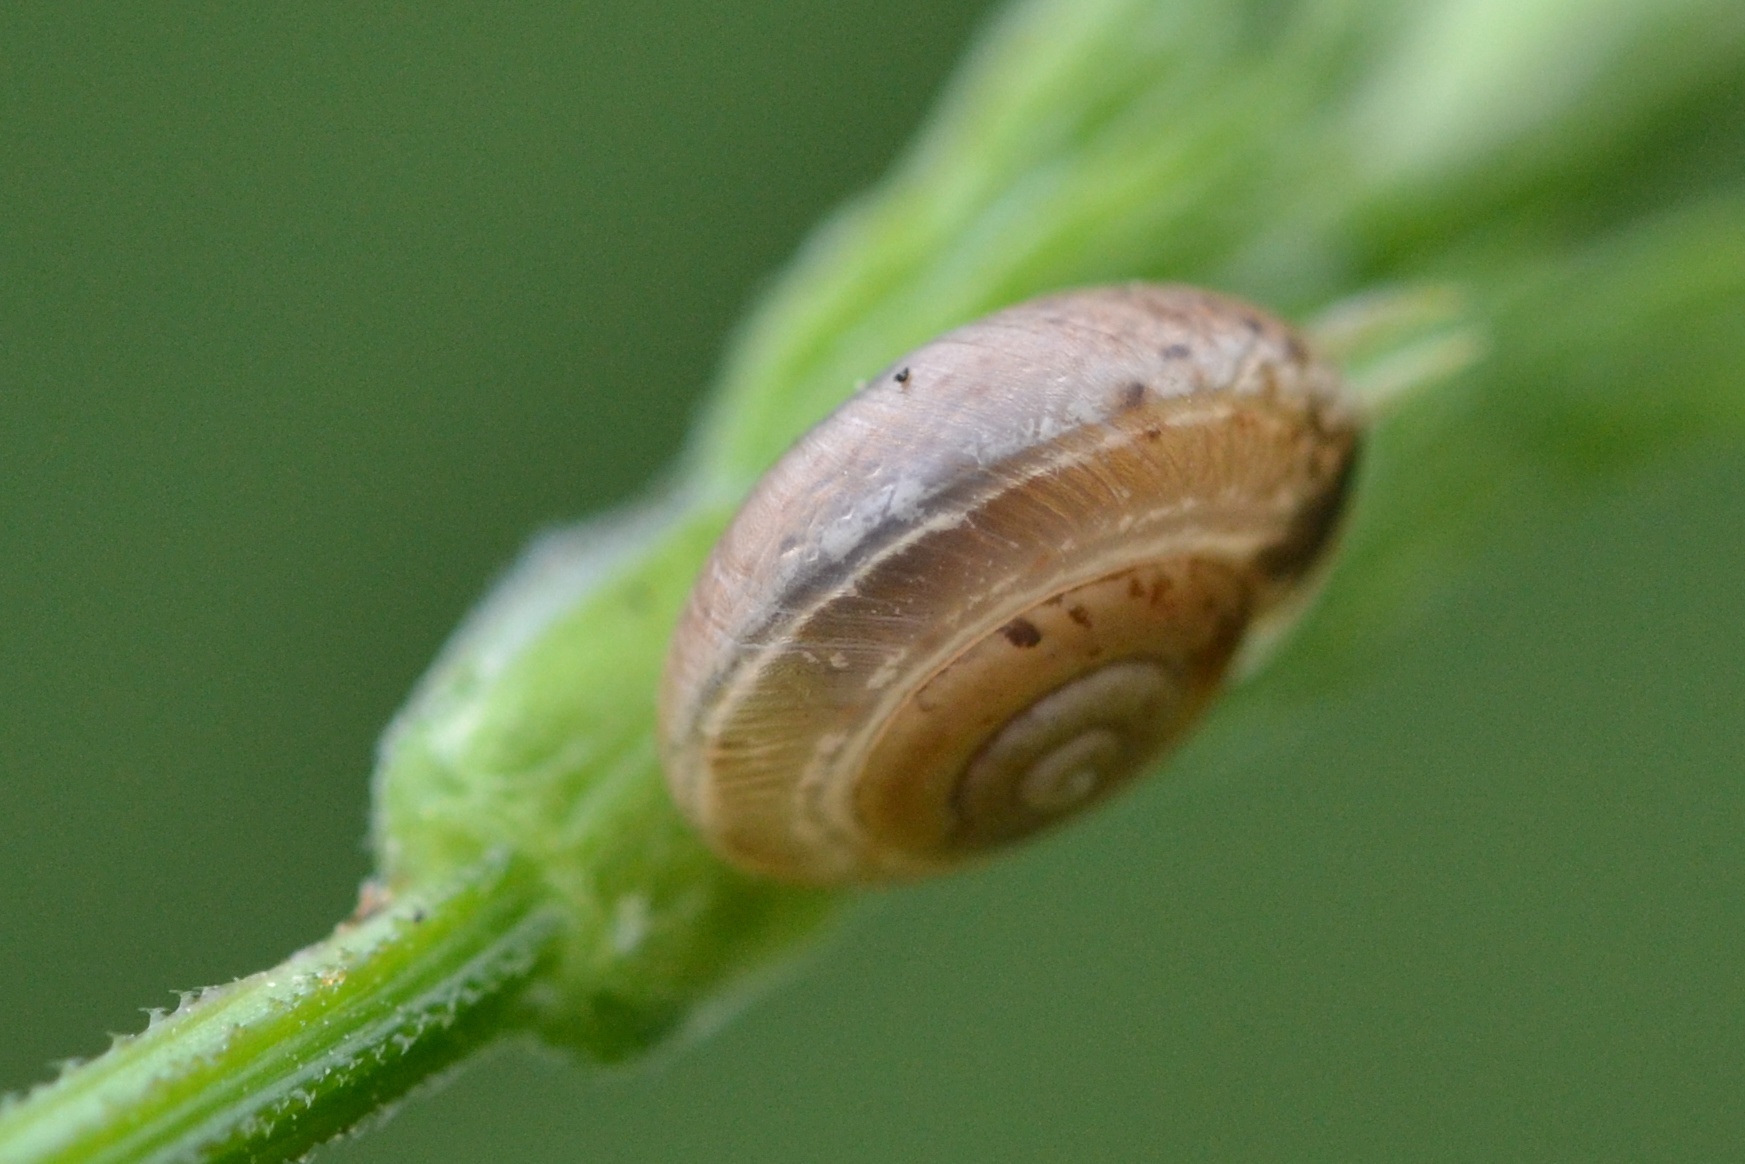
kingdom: Animalia
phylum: Mollusca
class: Gastropoda
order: Stylommatophora
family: Hygromiidae
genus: Urticicola
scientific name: Urticicola umbrosus
